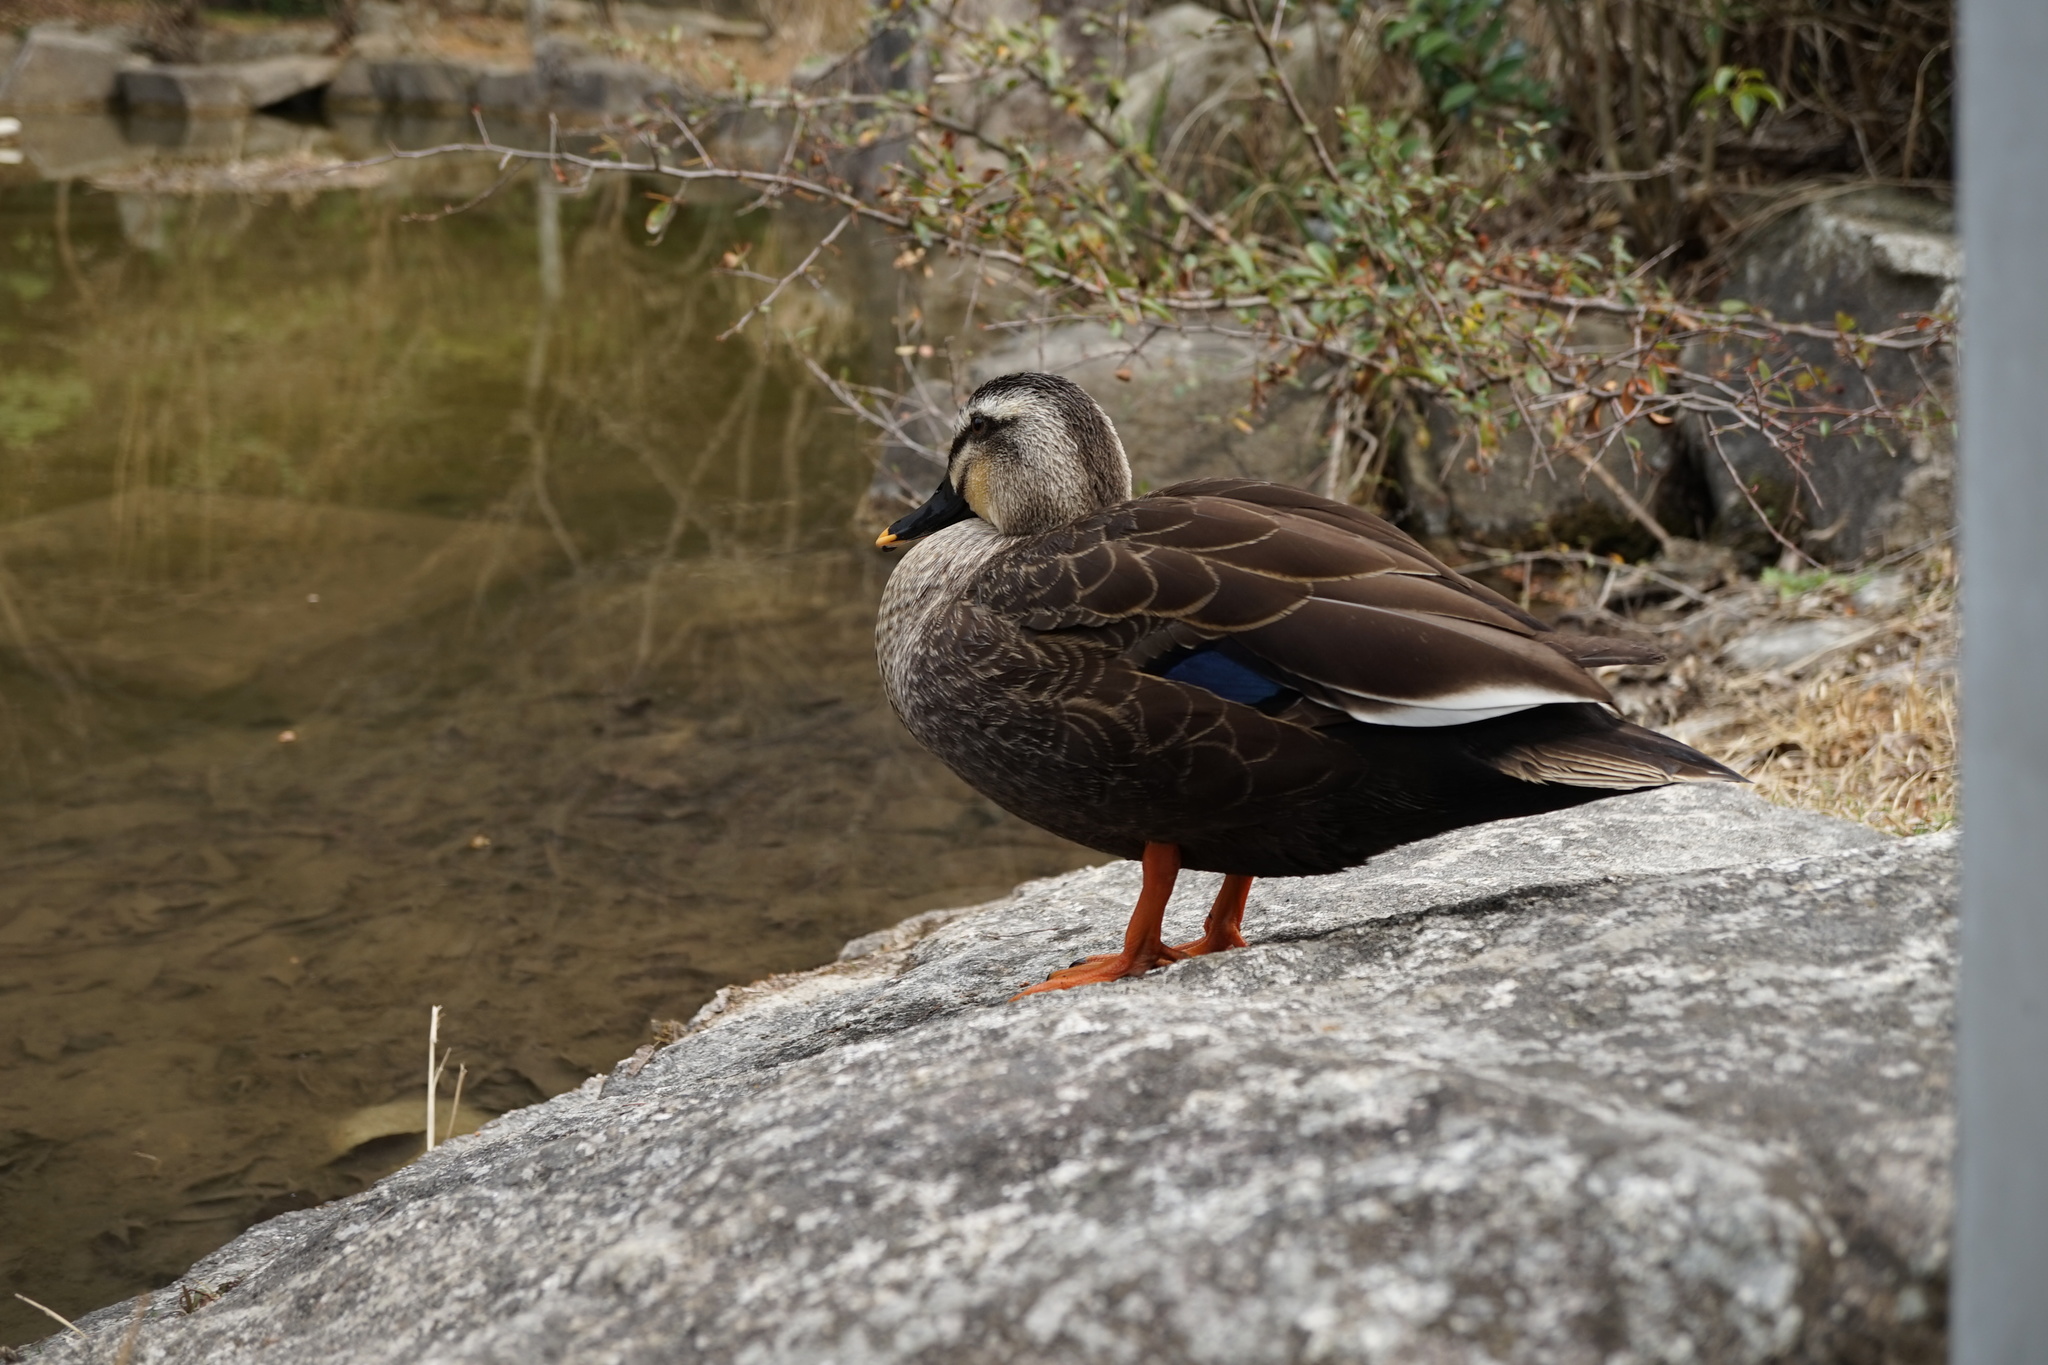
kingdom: Animalia
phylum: Chordata
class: Aves
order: Anseriformes
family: Anatidae
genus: Anas
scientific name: Anas zonorhyncha
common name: Eastern spot-billed duck
